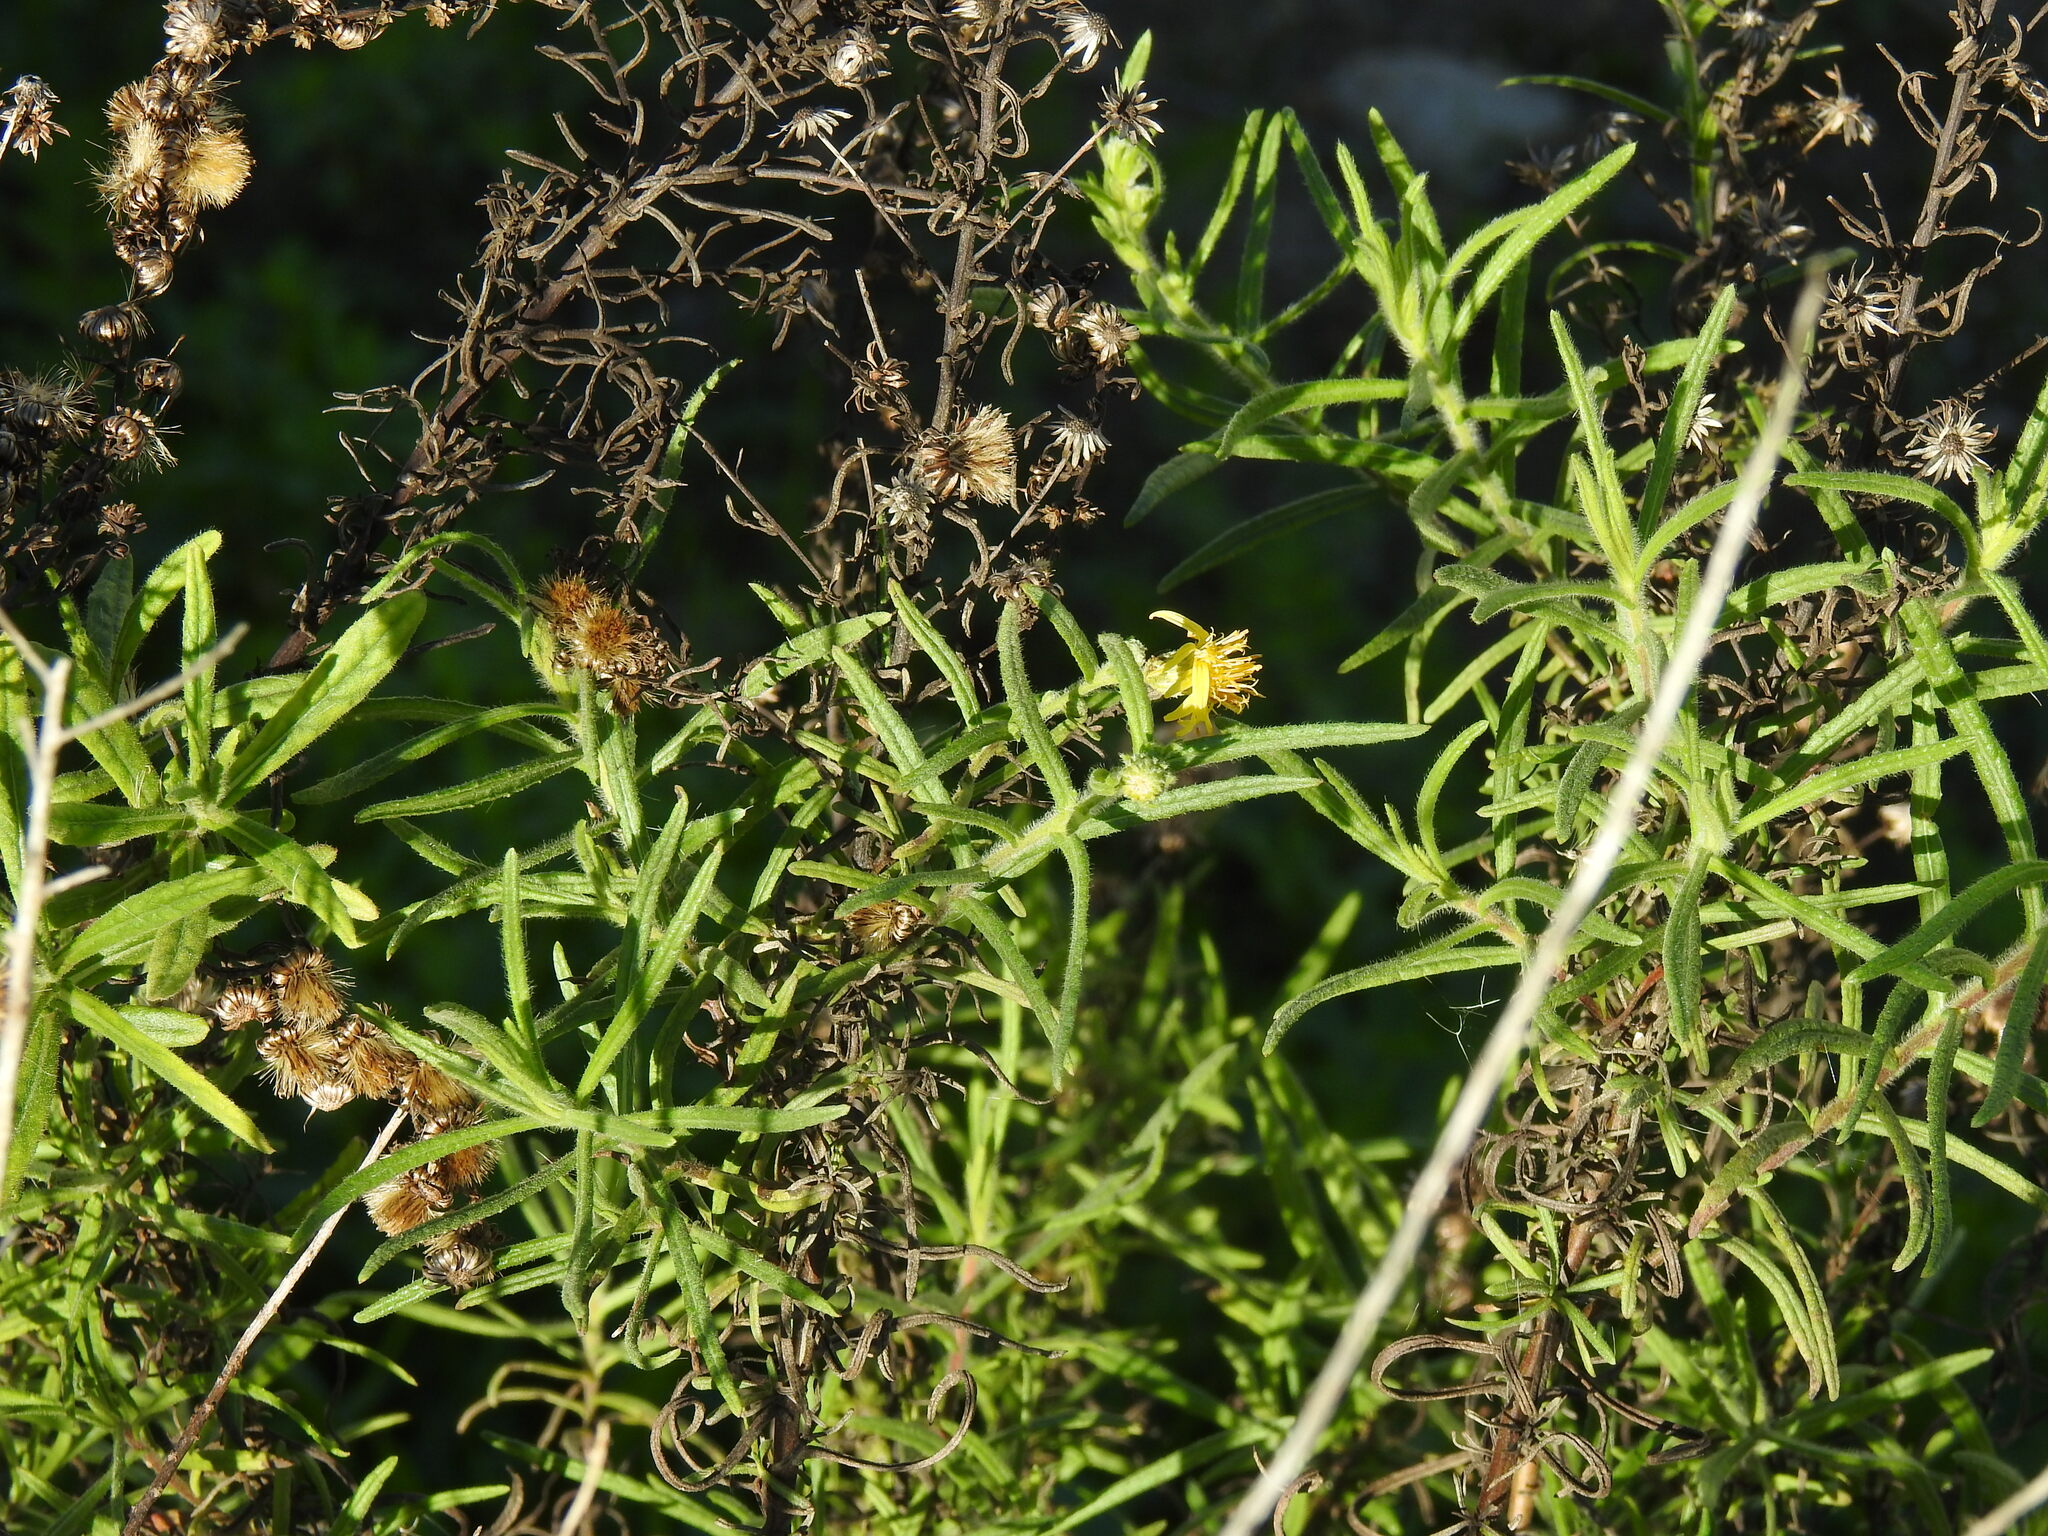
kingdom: Plantae
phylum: Tracheophyta
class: Magnoliopsida
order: Asterales
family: Asteraceae
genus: Dittrichia
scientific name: Dittrichia viscosa
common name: Woody fleabane
